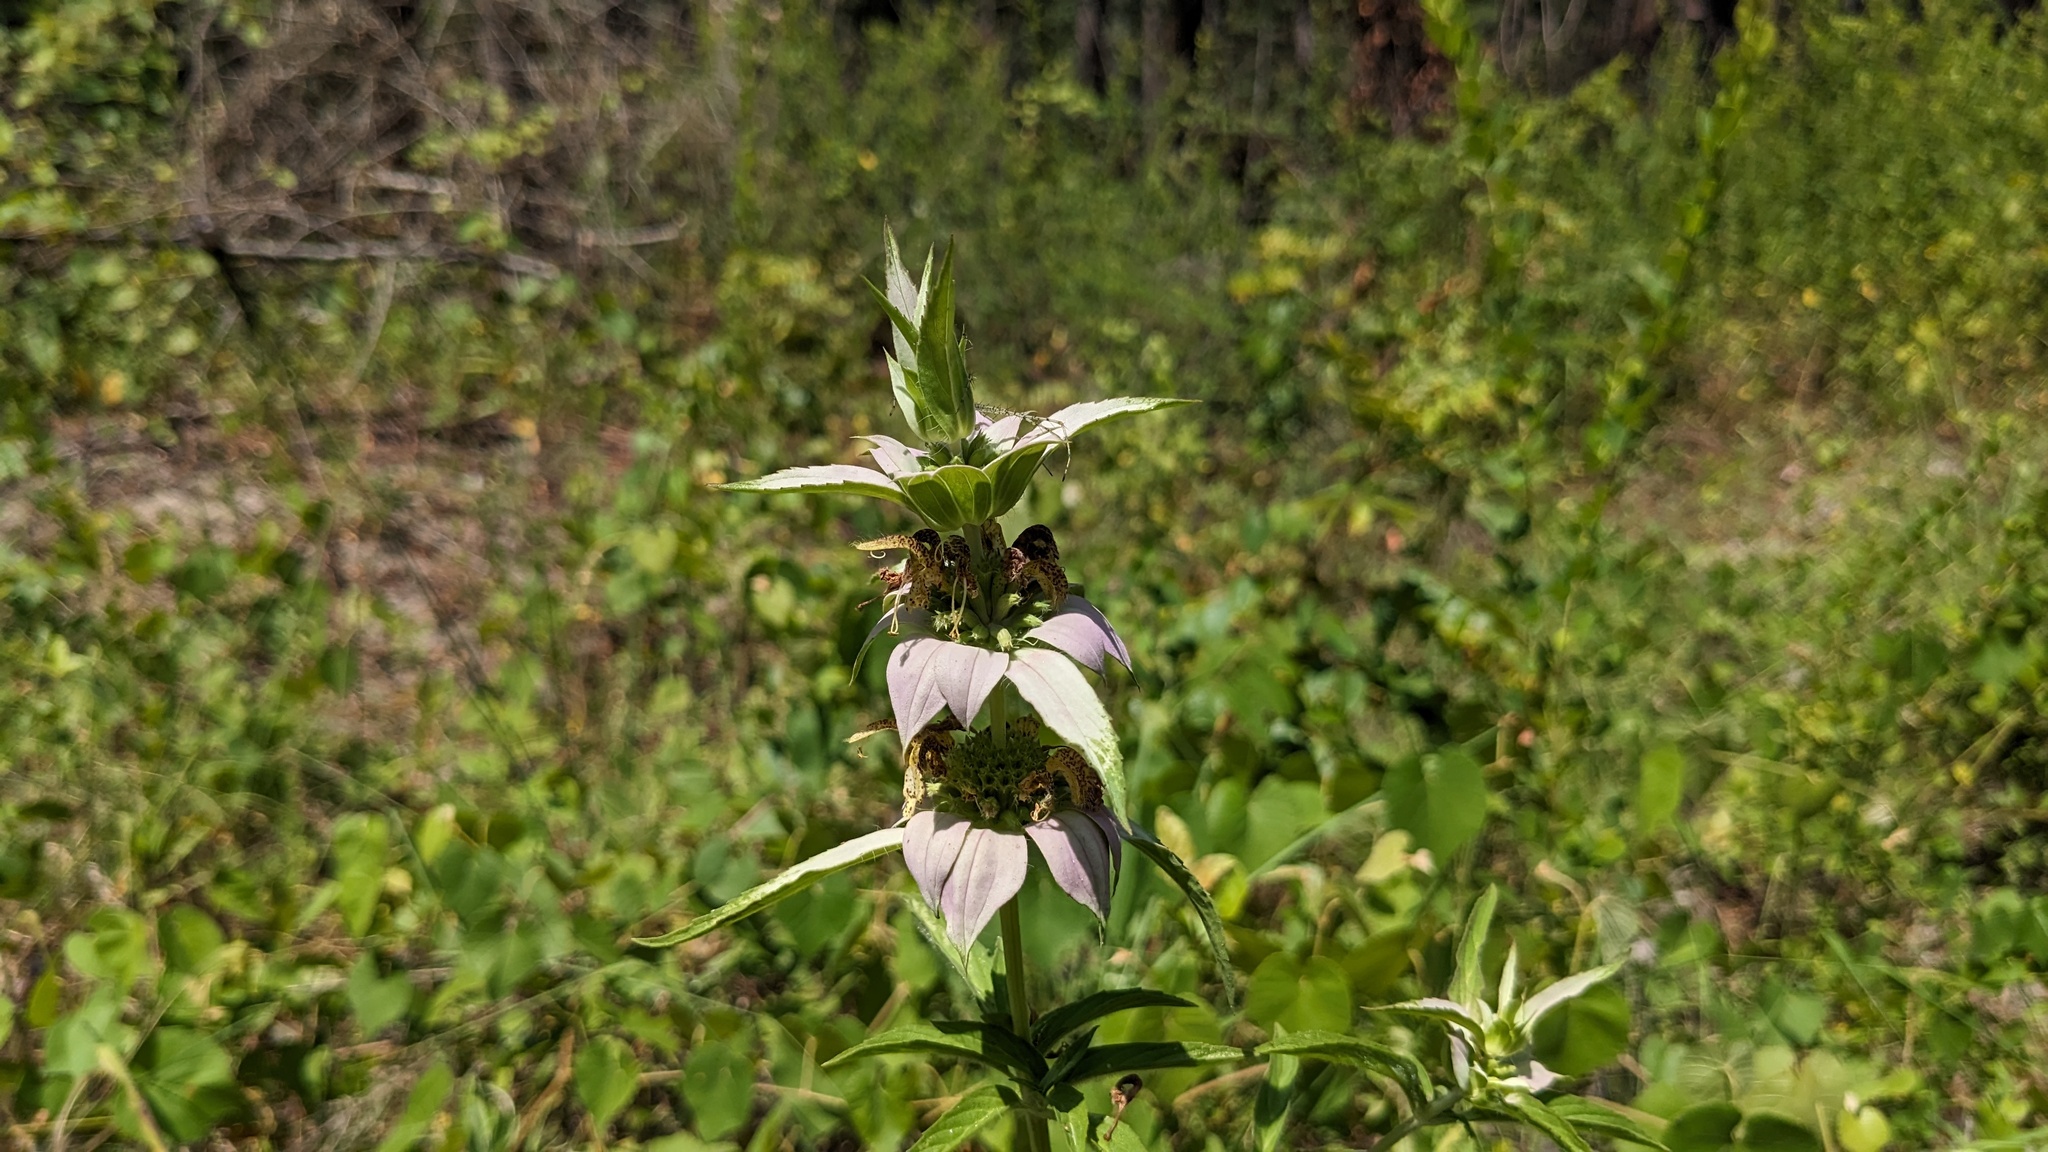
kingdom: Plantae
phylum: Tracheophyta
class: Magnoliopsida
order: Lamiales
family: Lamiaceae
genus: Monarda
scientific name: Monarda punctata
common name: Dotted monarda
